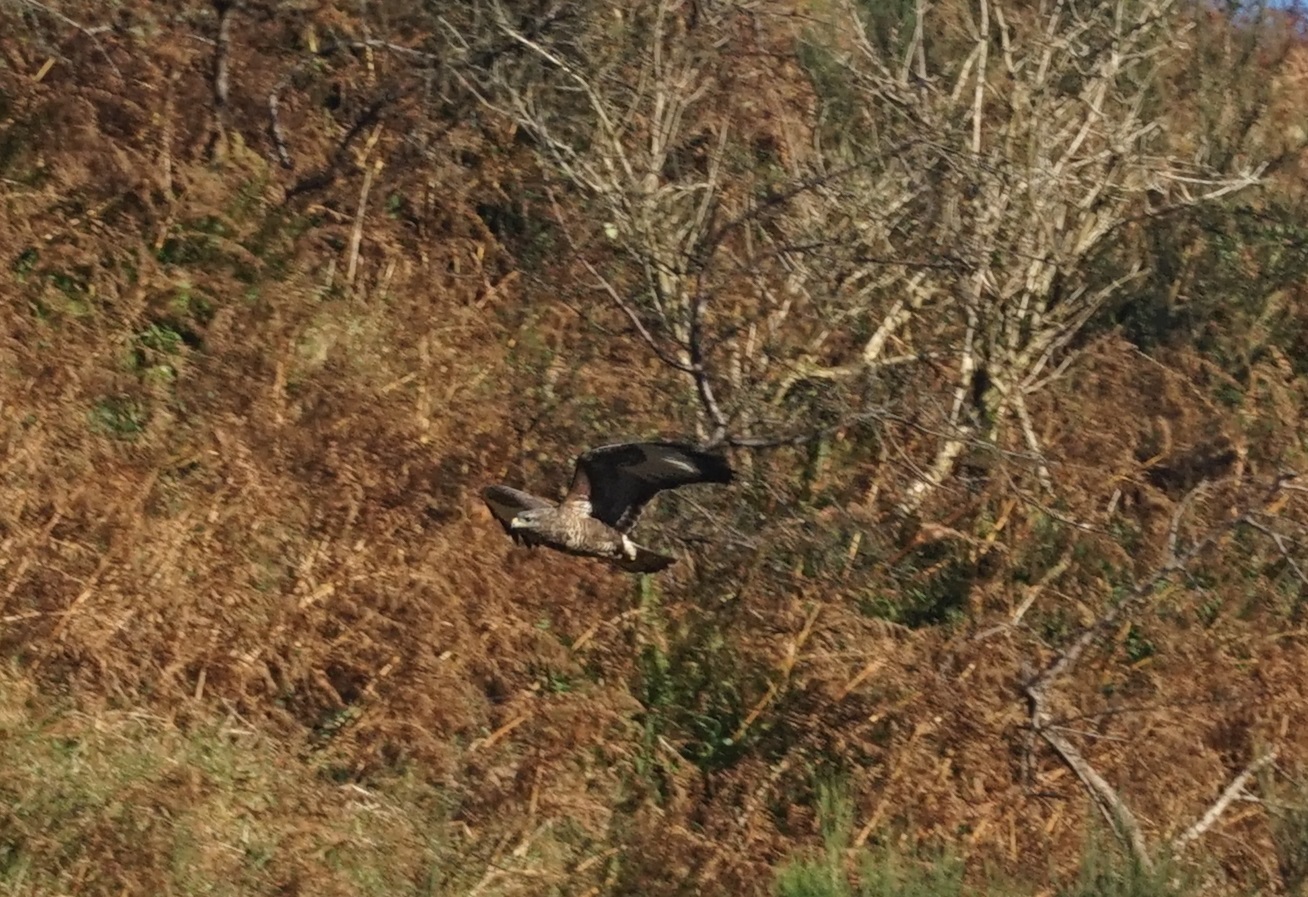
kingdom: Animalia
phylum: Chordata
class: Aves
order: Accipitriformes
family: Accipitridae
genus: Buteo
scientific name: Buteo buteo
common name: Common buzzard
